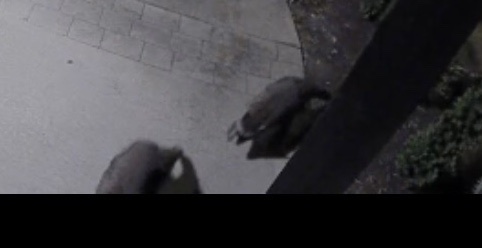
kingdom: Animalia
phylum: Chordata
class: Mammalia
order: Carnivora
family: Procyonidae
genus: Procyon
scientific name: Procyon lotor
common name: Raccoon
